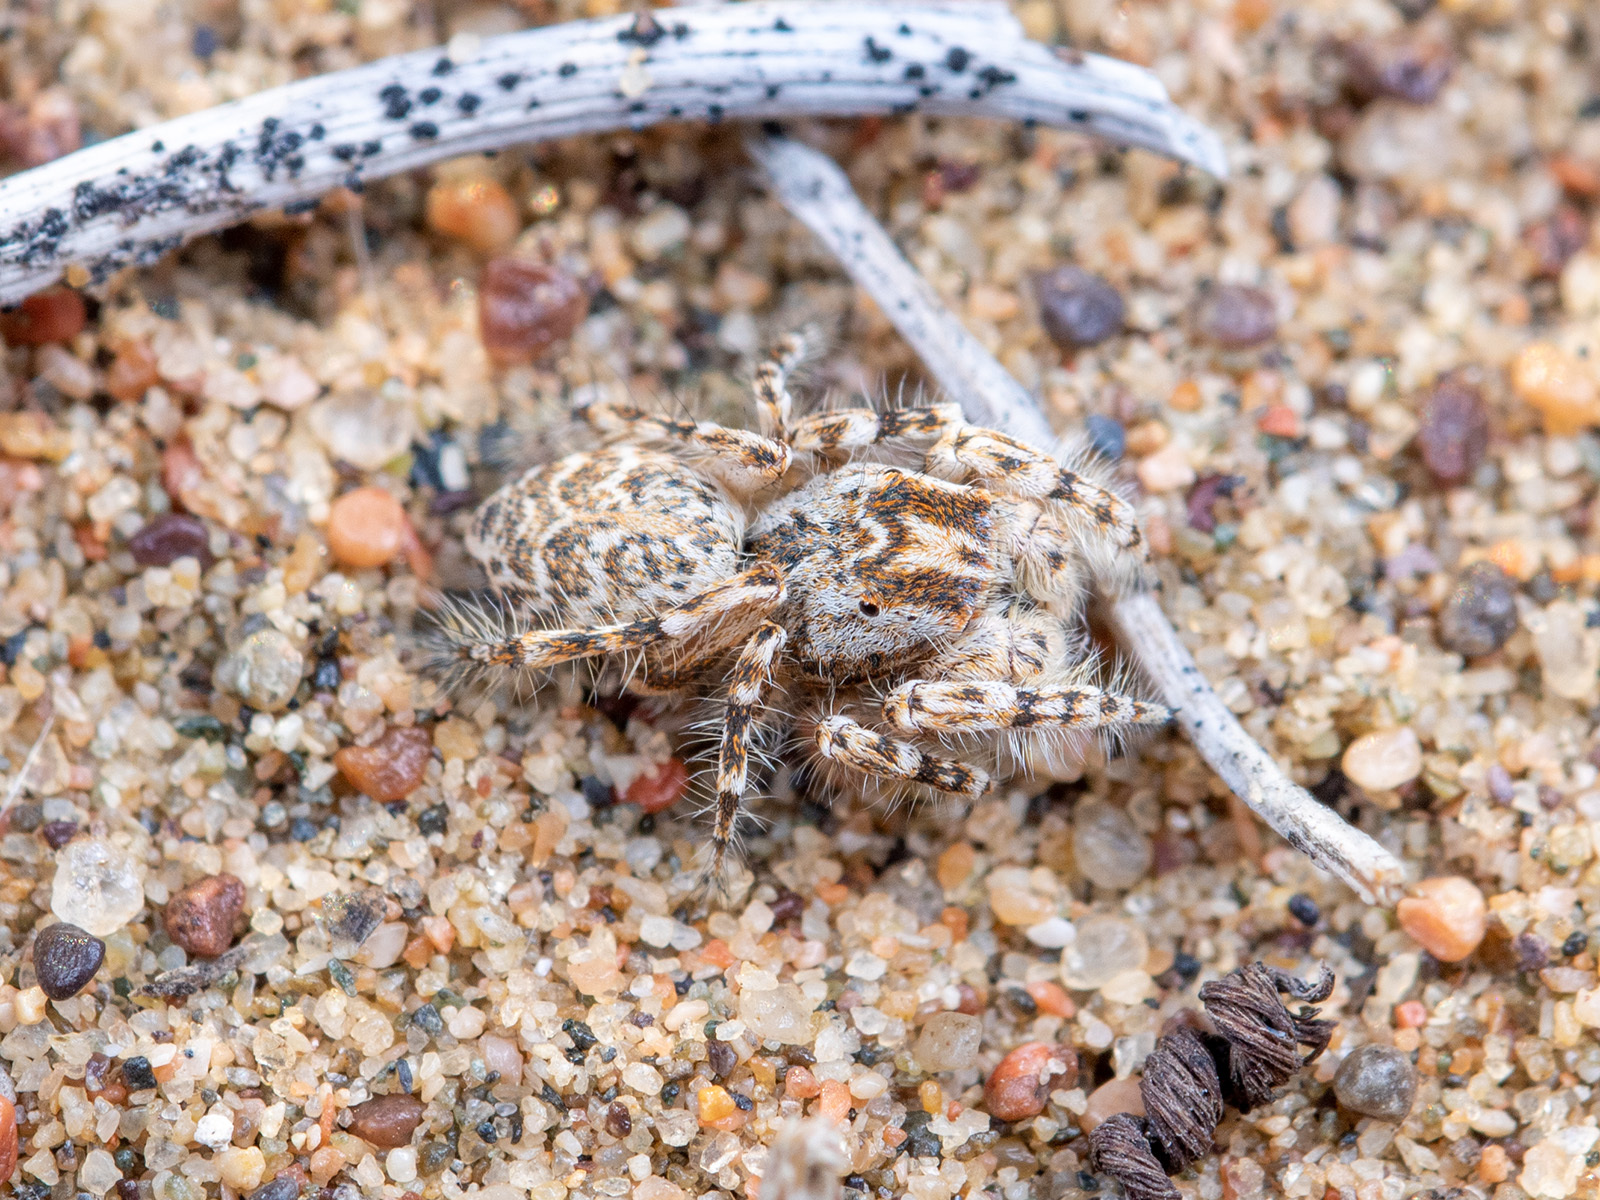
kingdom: Animalia
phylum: Arthropoda
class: Arachnida
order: Araneae
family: Salticidae
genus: Yllenus
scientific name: Yllenus turkestanicus
